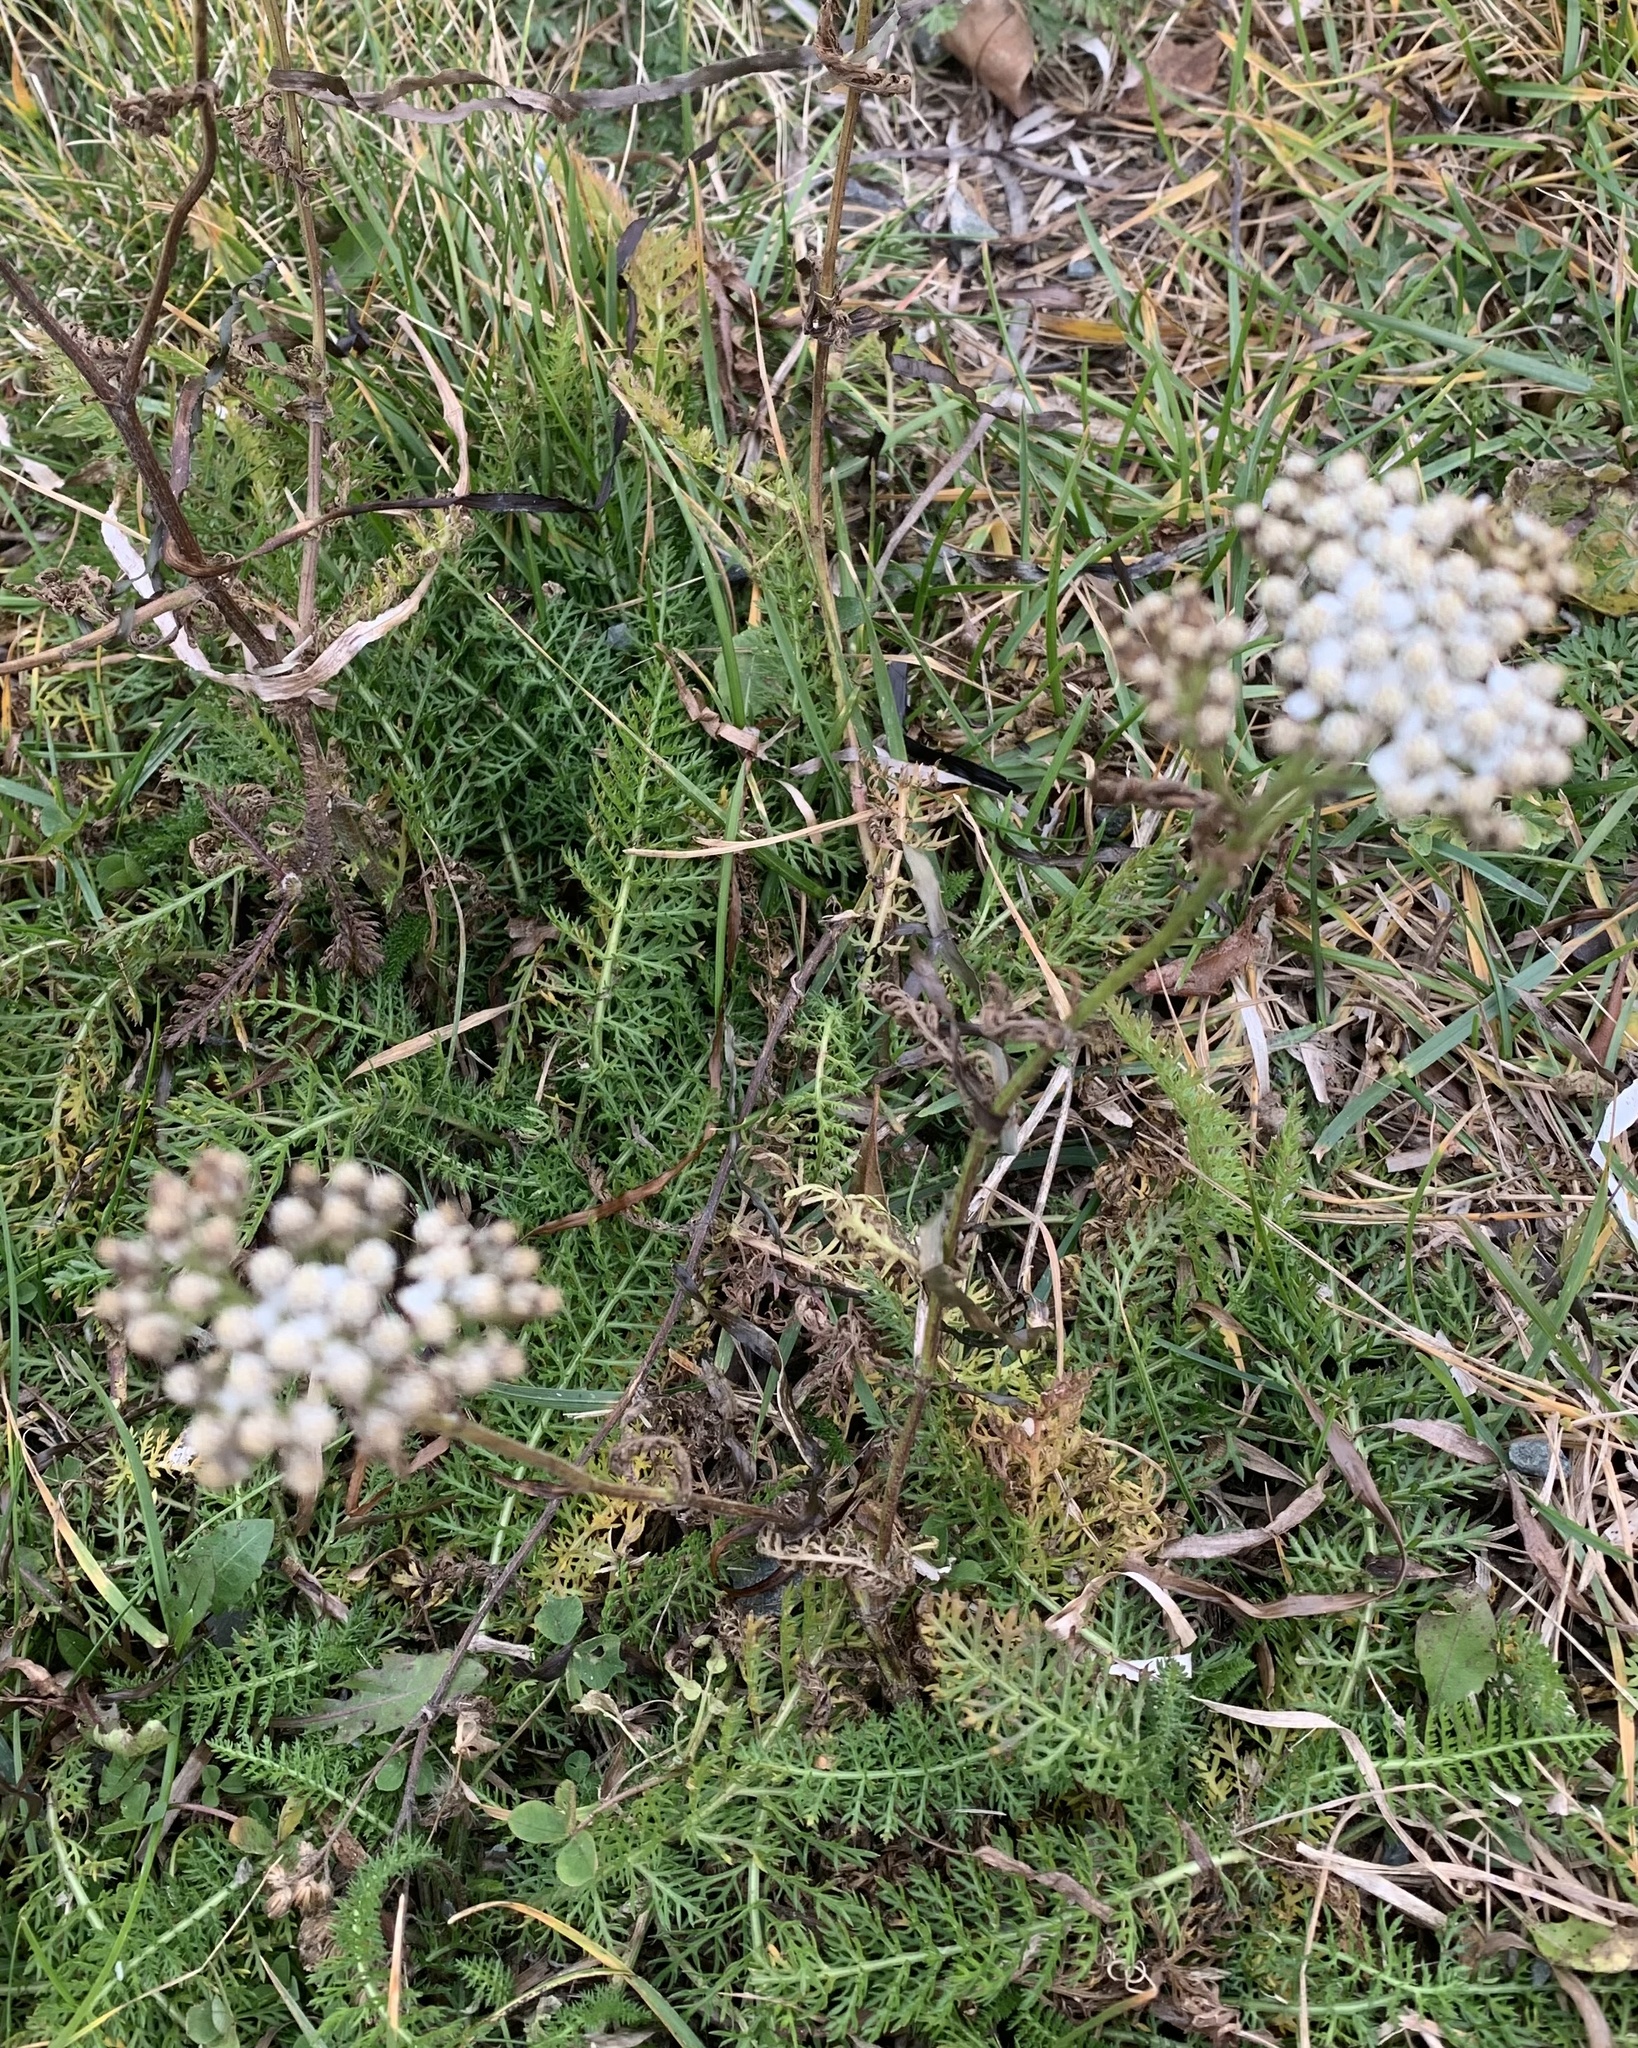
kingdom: Plantae
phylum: Tracheophyta
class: Magnoliopsida
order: Asterales
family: Asteraceae
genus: Achillea
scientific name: Achillea millefolium
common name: Yarrow
